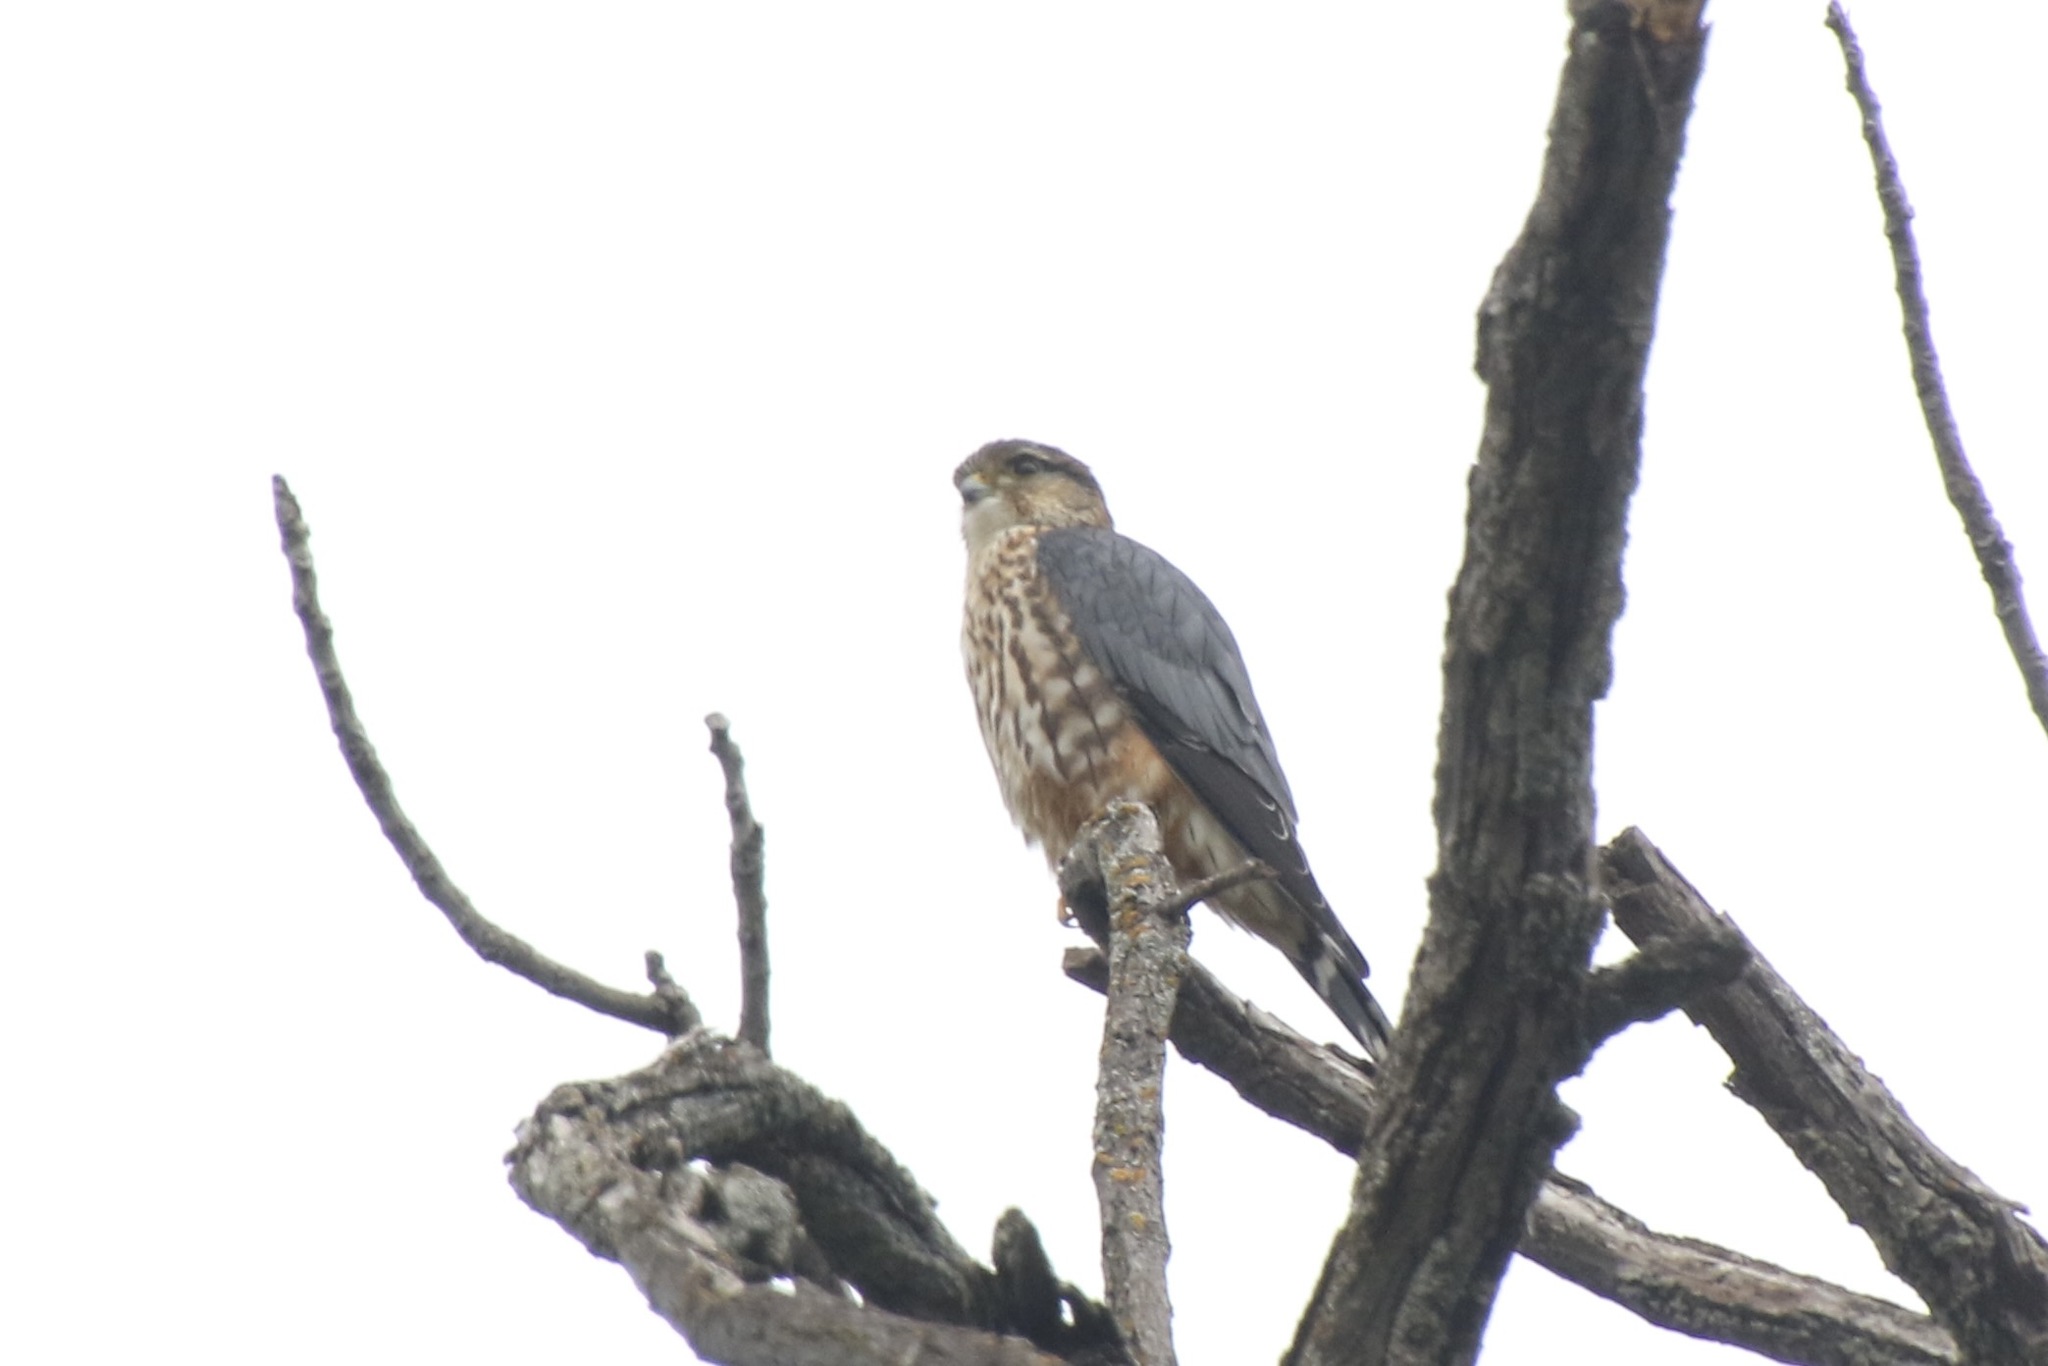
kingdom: Animalia
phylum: Chordata
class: Aves
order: Falconiformes
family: Falconidae
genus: Falco
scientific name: Falco columbarius
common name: Merlin
